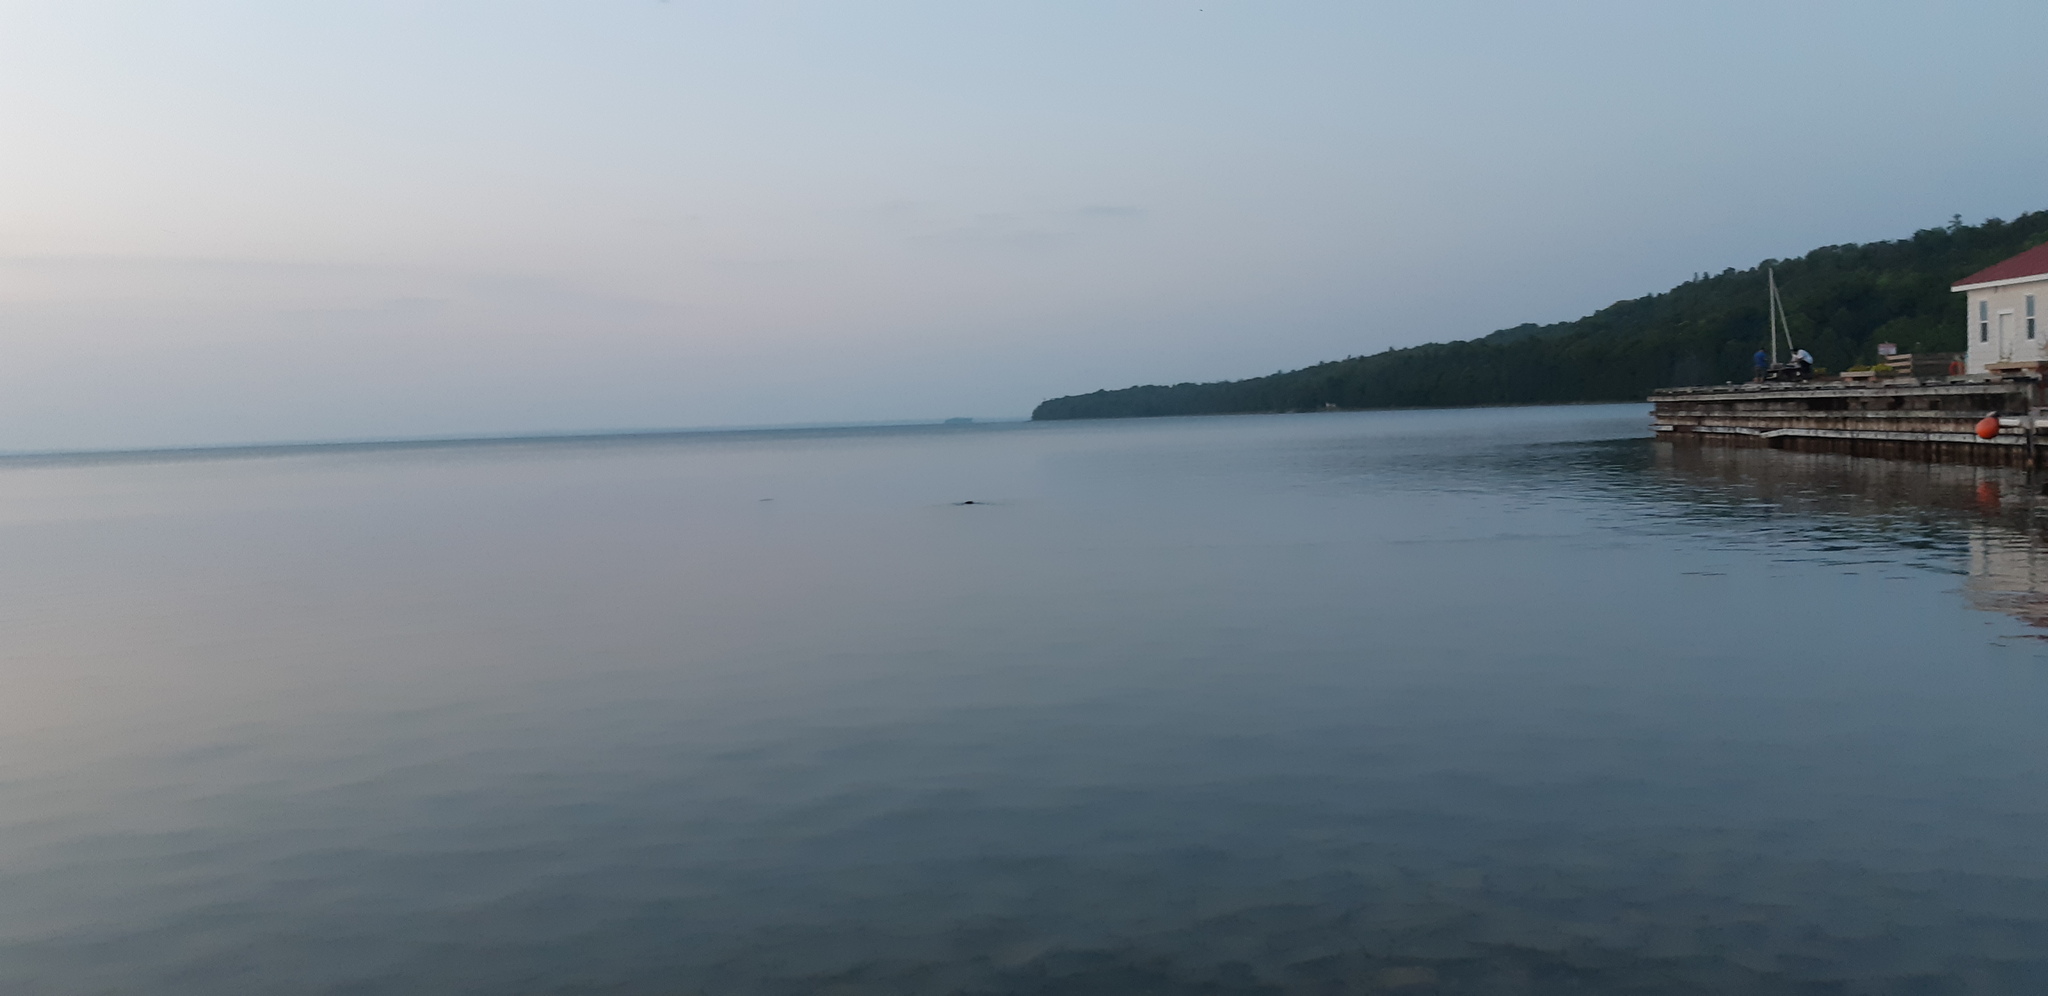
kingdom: Animalia
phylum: Chordata
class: Mammalia
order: Rodentia
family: Castoridae
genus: Castor
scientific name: Castor canadensis
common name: American beaver
